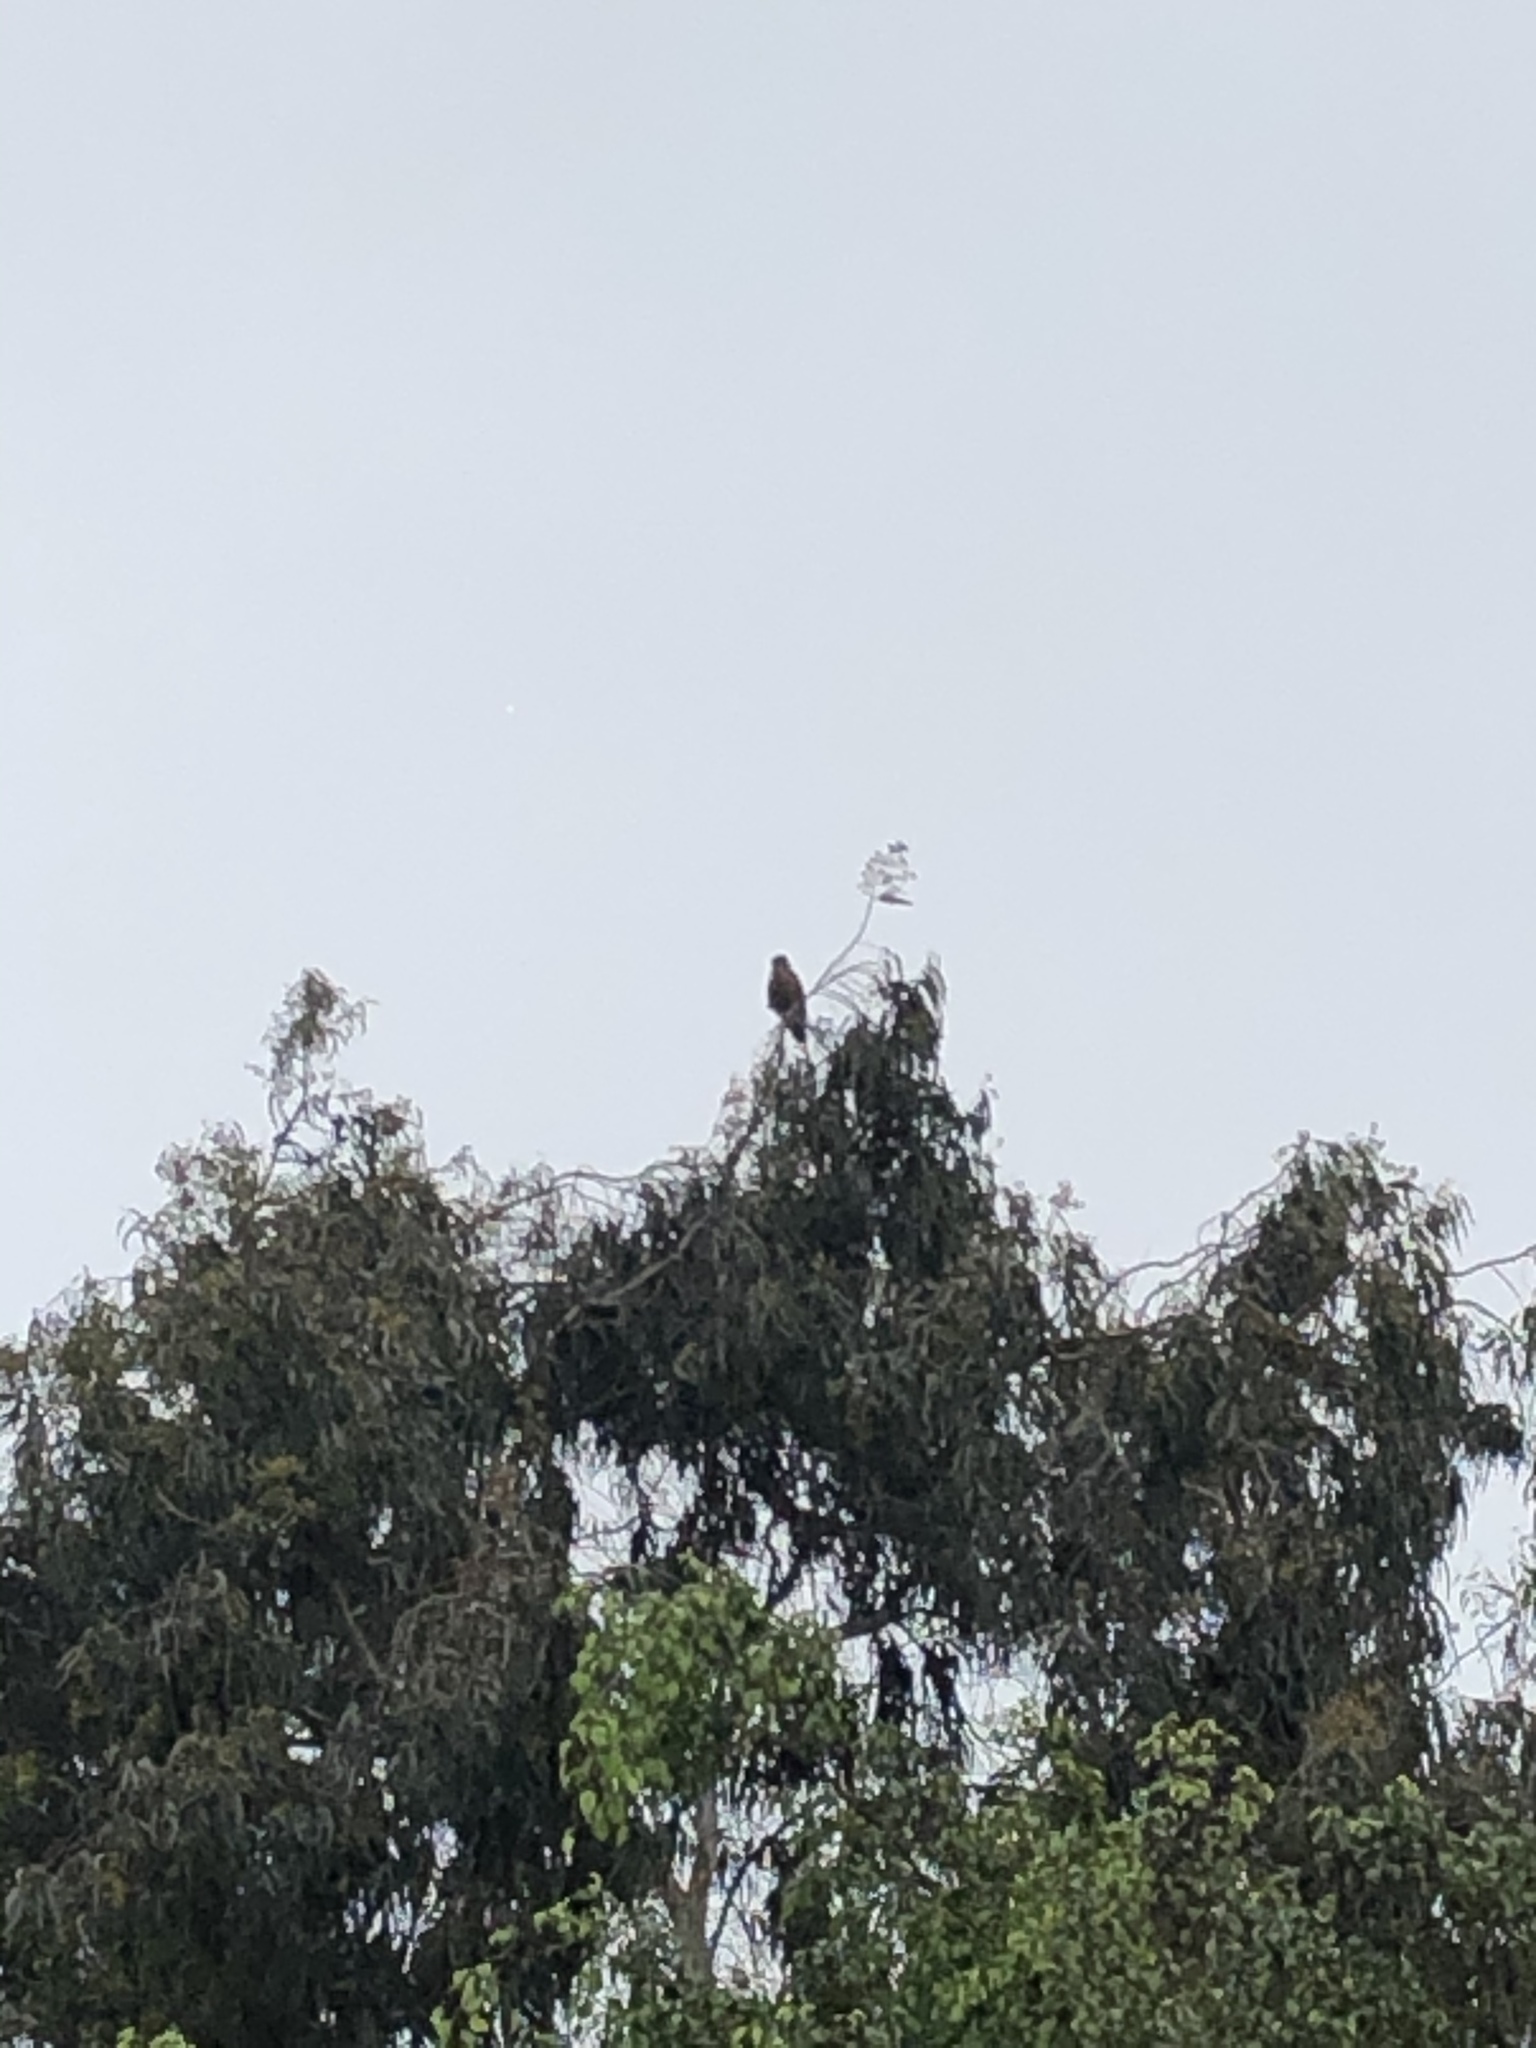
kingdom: Animalia
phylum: Chordata
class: Aves
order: Accipitriformes
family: Accipitridae
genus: Parabuteo
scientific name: Parabuteo unicinctus
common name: Harris's hawk
